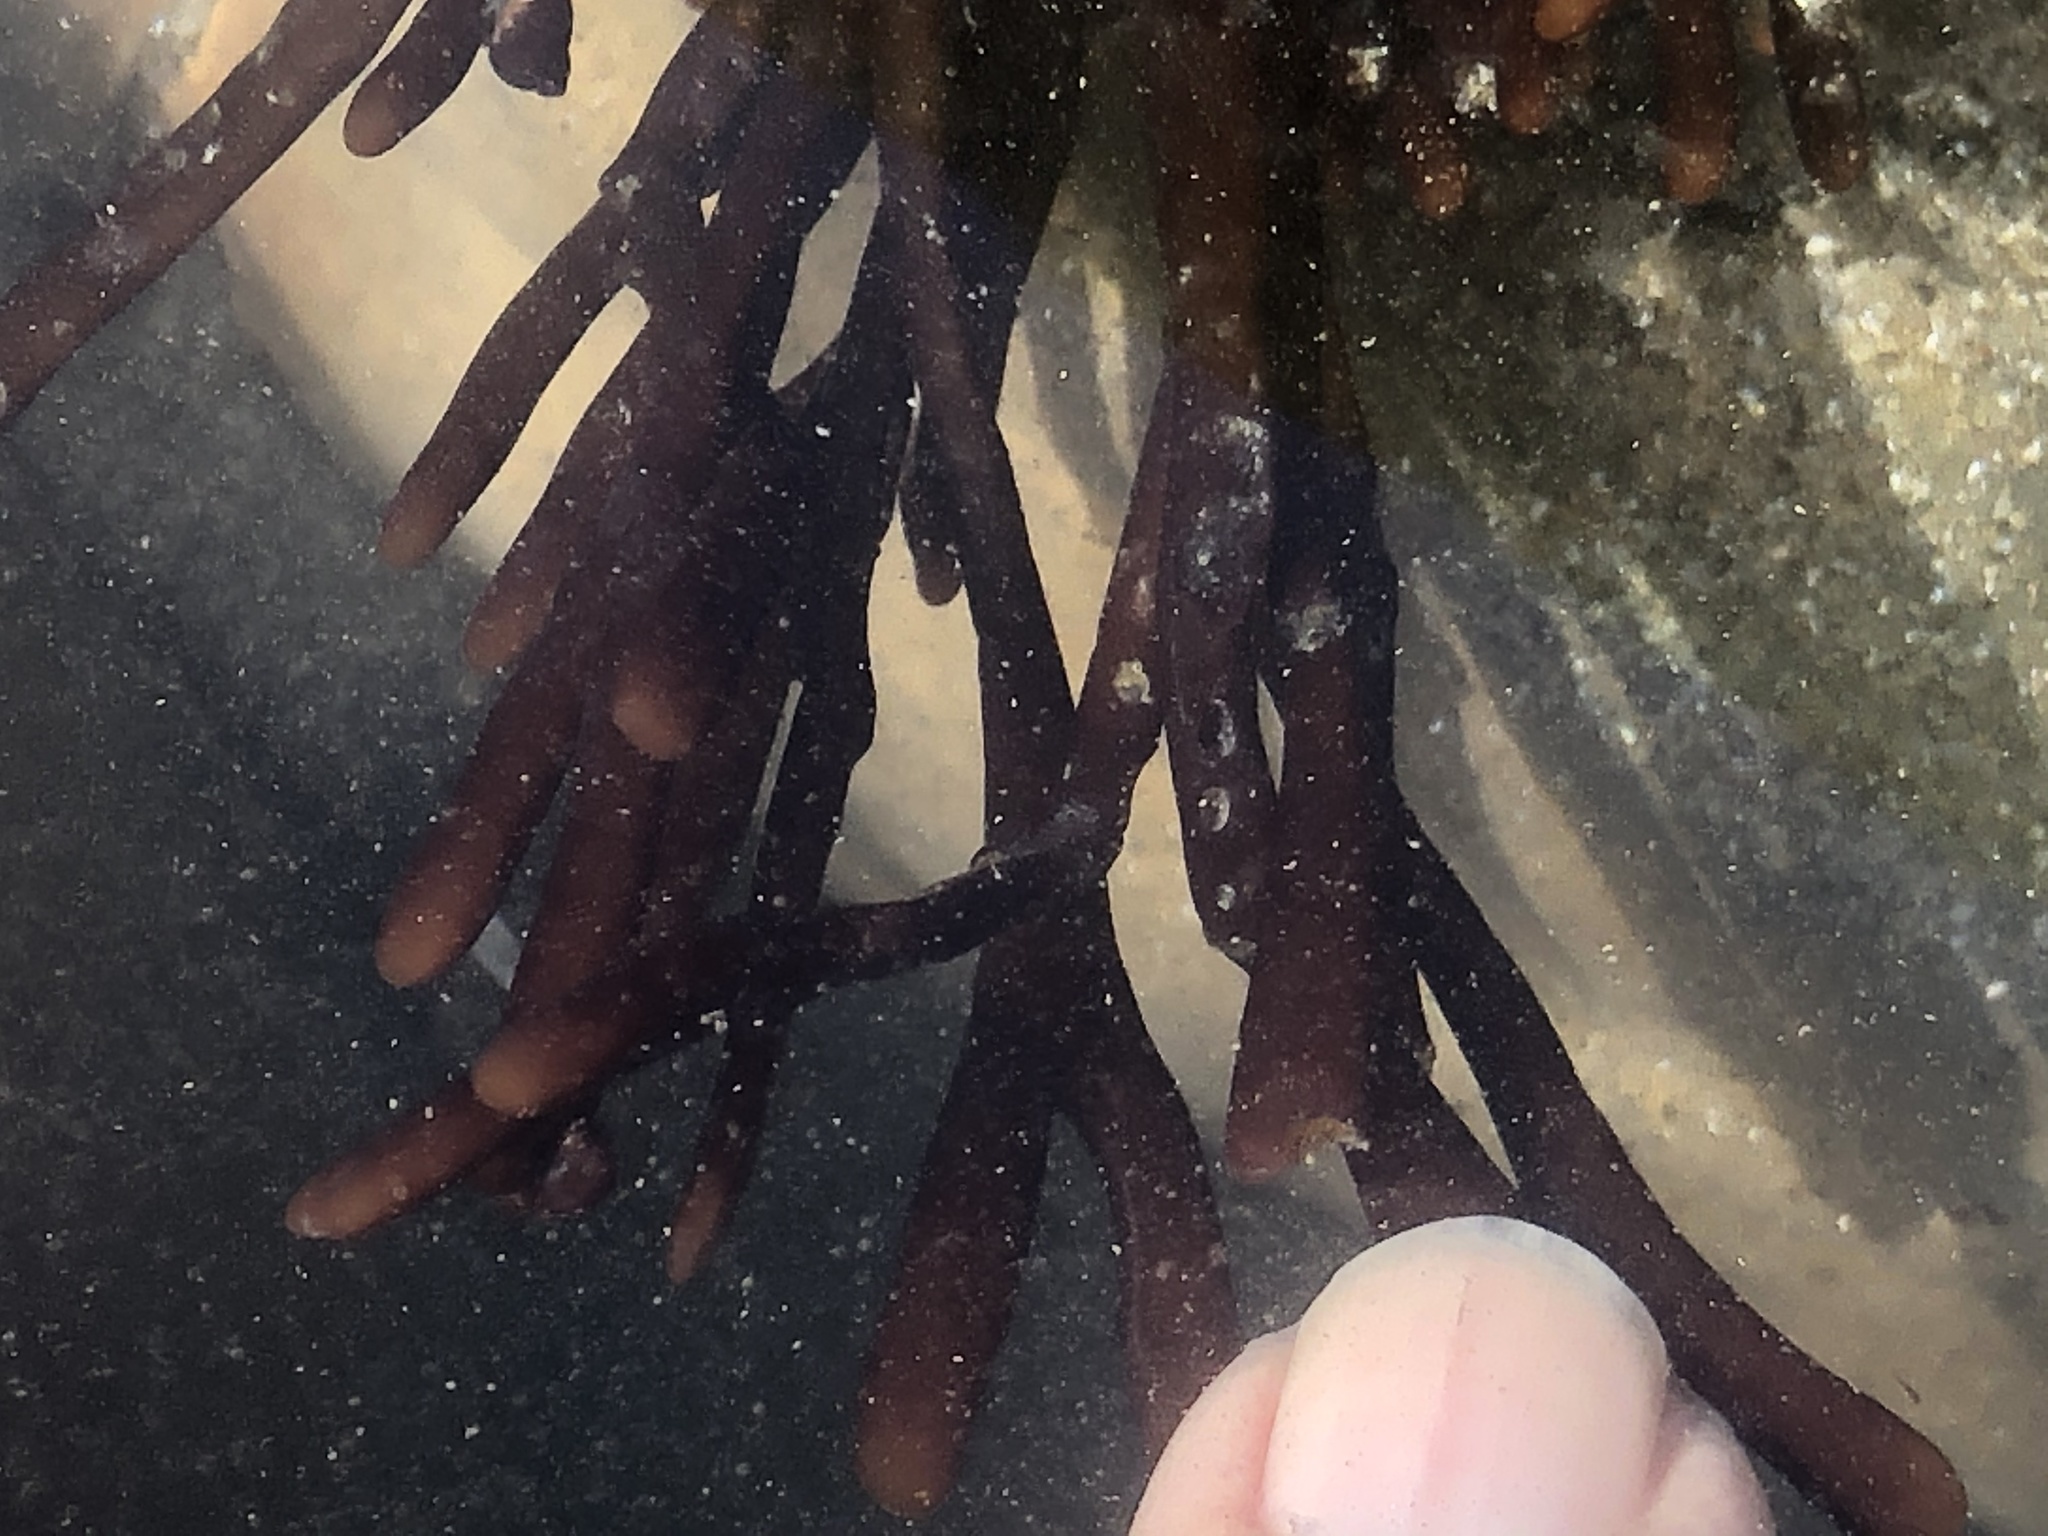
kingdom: Plantae
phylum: Rhodophyta
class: Florideophyceae
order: Gigartinales
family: Phyllophoraceae
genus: Ahnfeltiopsis
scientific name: Ahnfeltiopsis linearis
